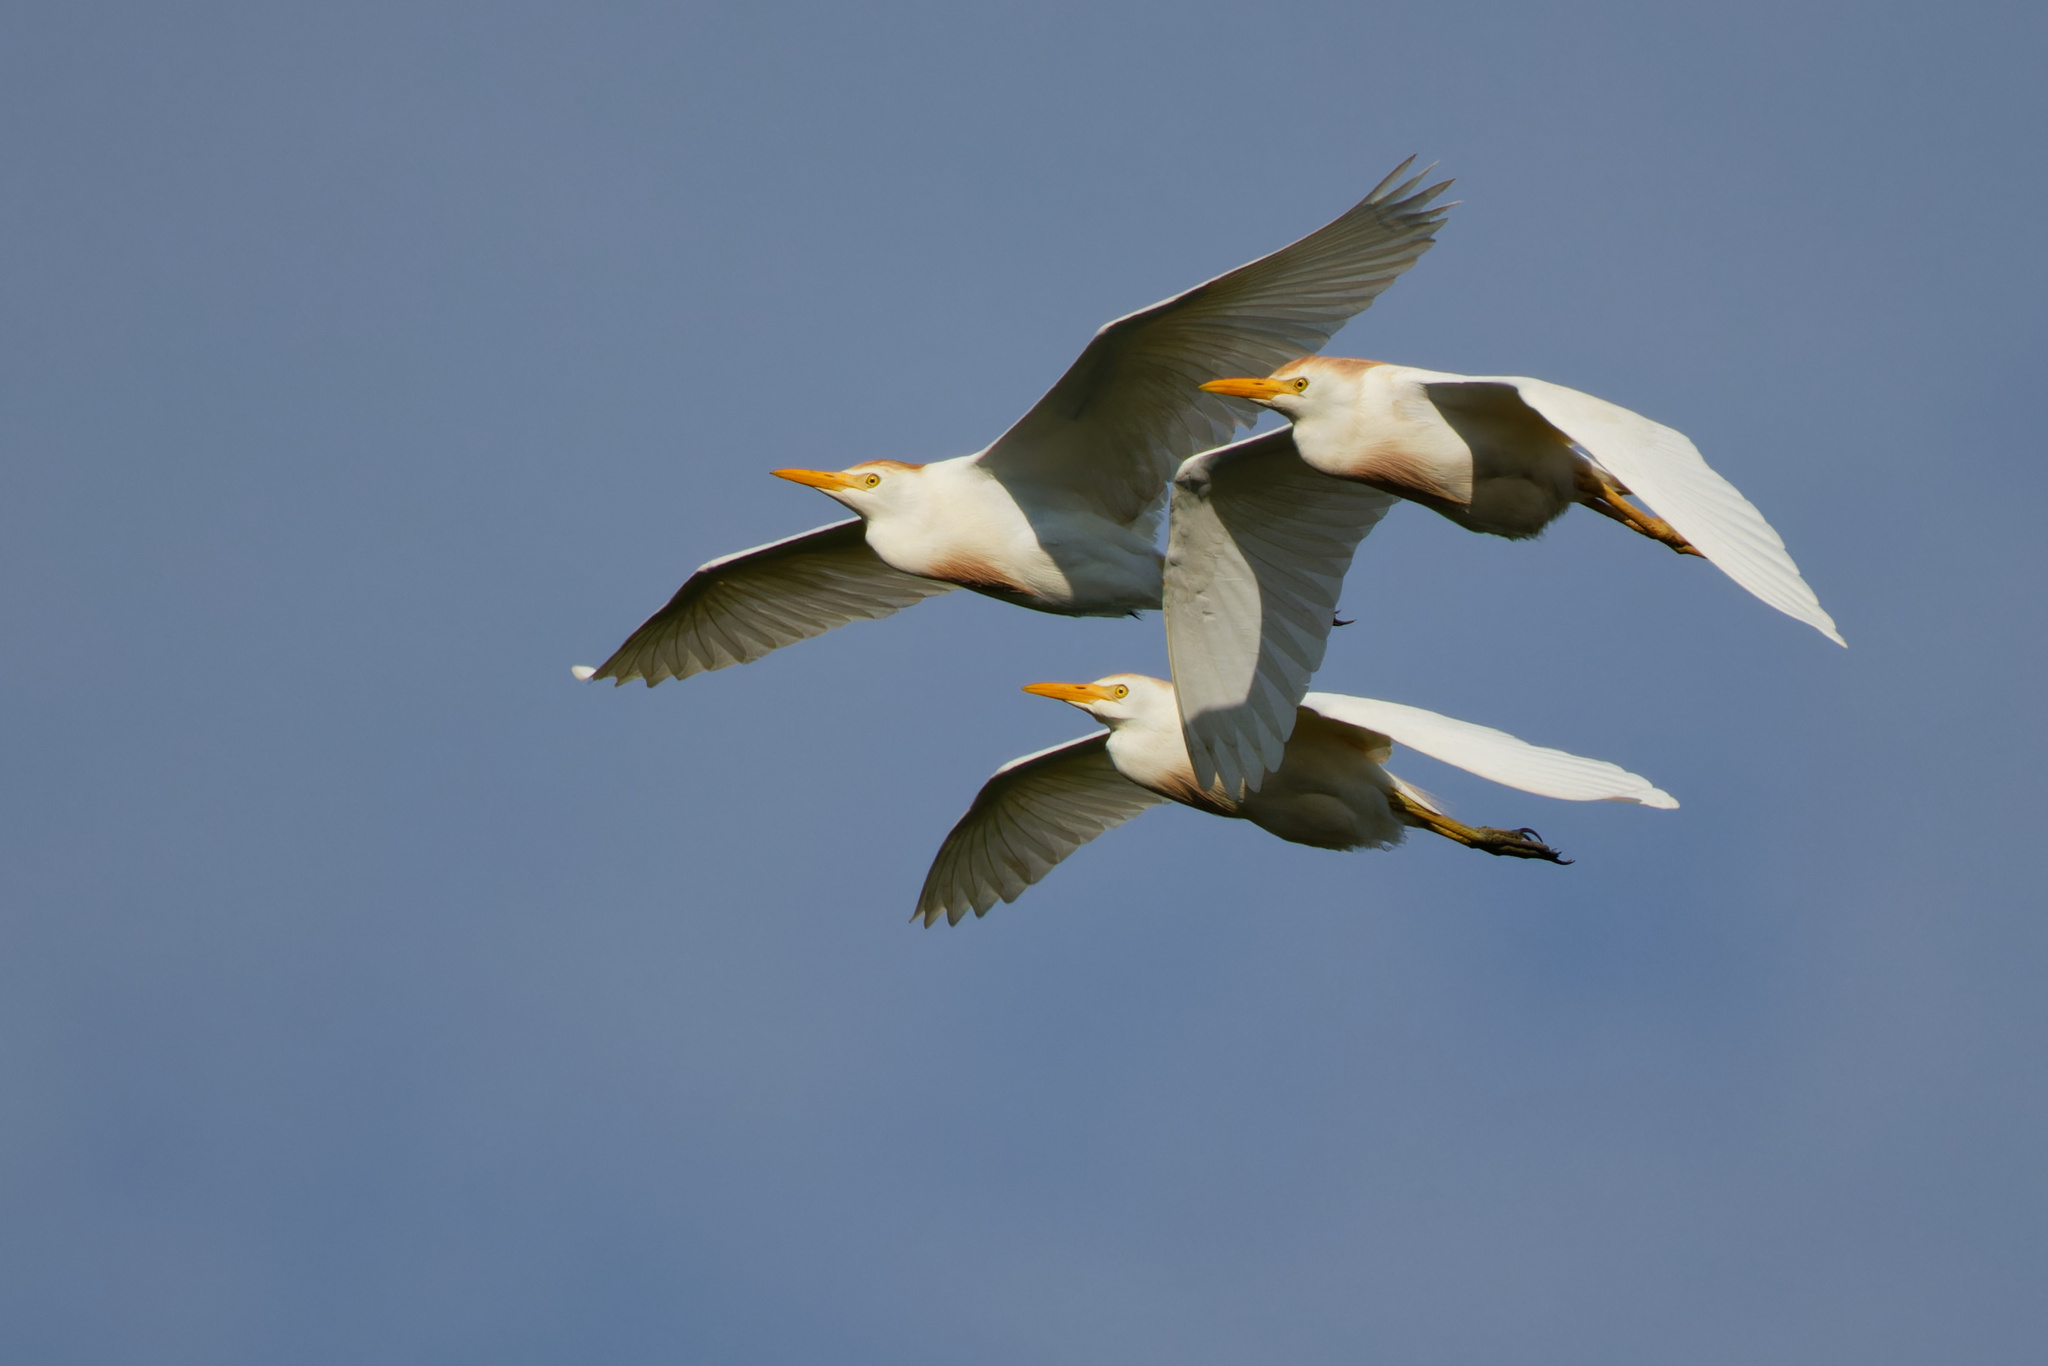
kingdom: Animalia
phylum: Chordata
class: Aves
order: Pelecaniformes
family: Ardeidae
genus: Bubulcus
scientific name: Bubulcus ibis
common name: Cattle egret
